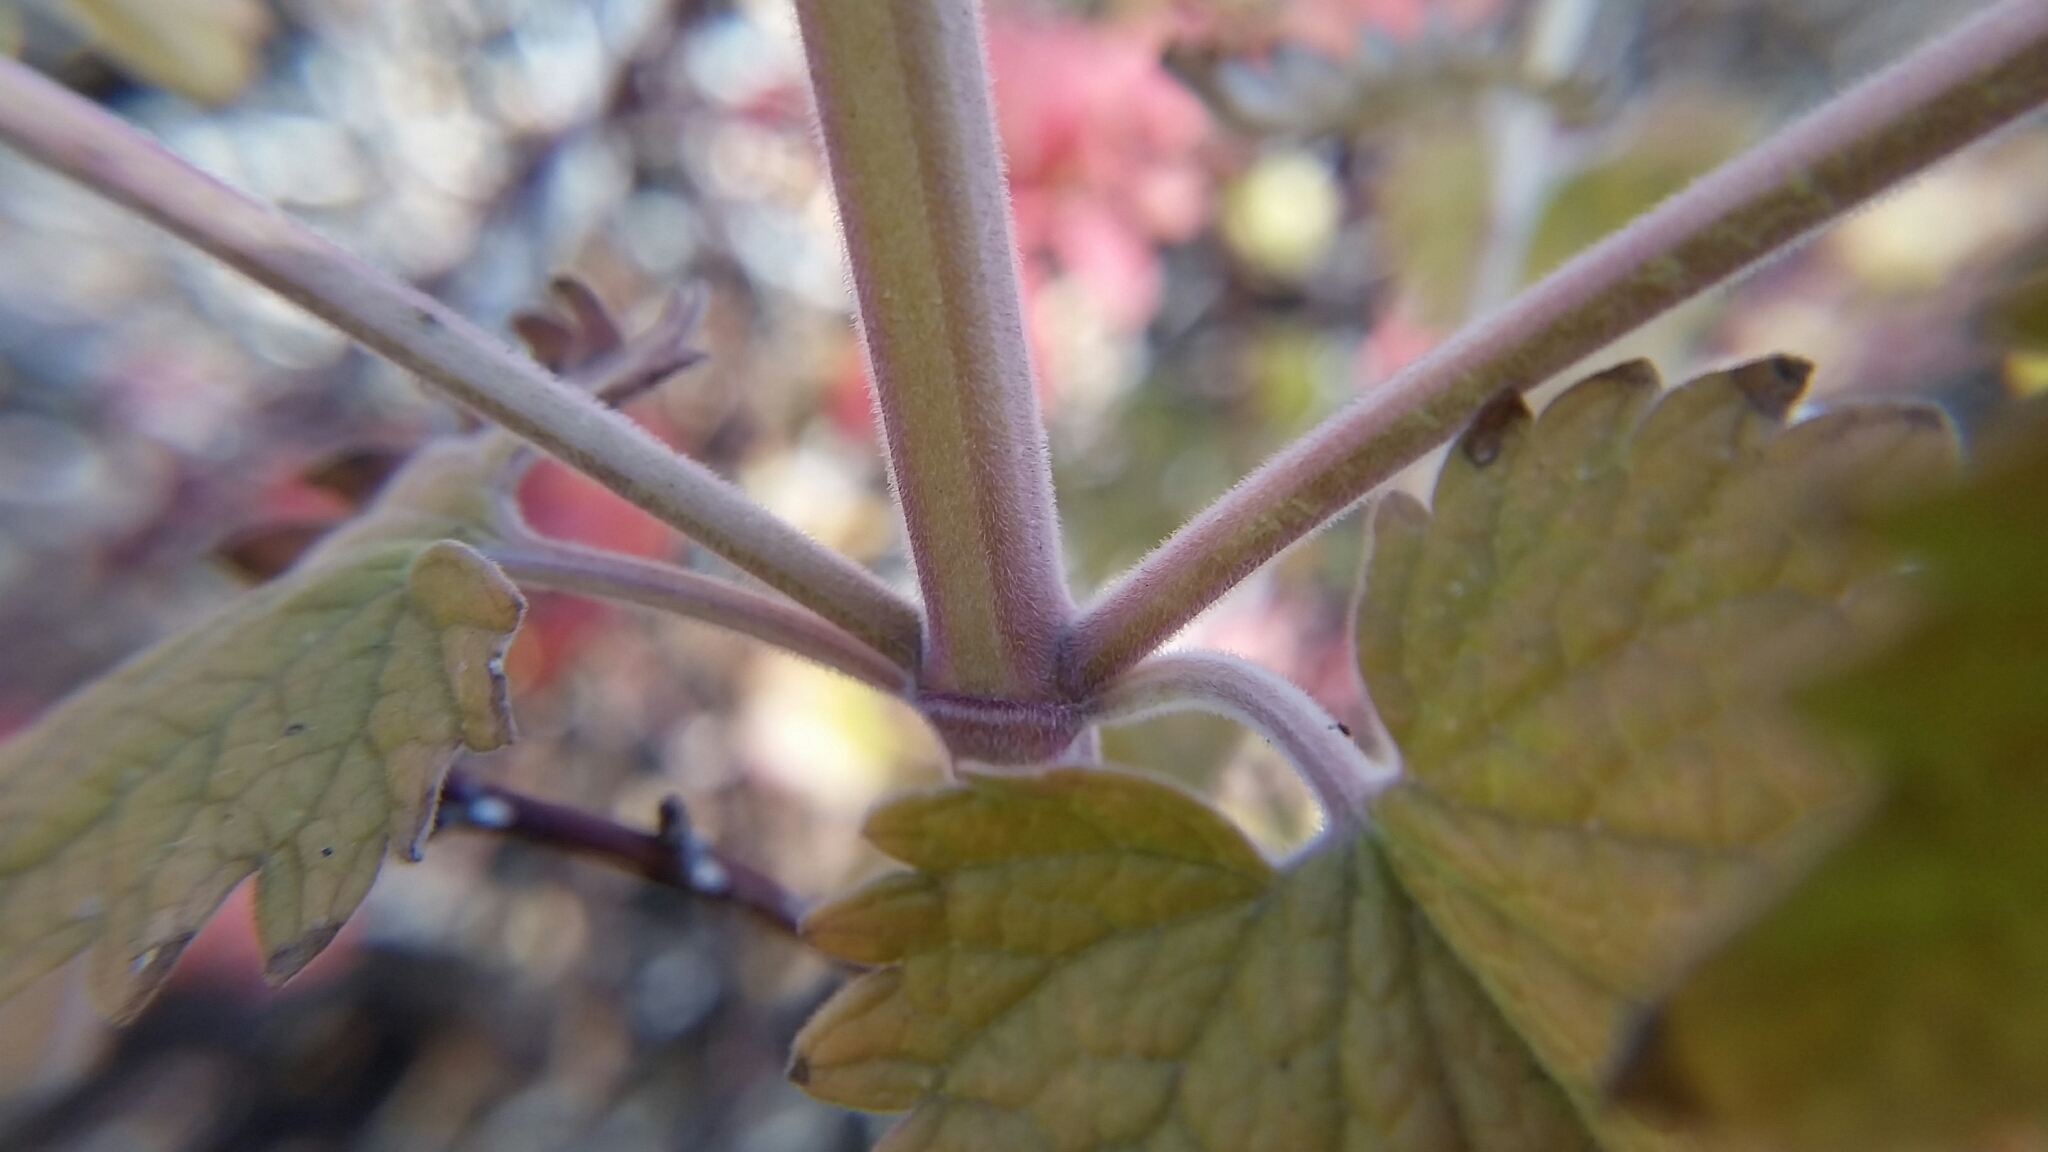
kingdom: Plantae
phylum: Tracheophyta
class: Magnoliopsida
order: Lamiales
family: Lamiaceae
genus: Nepeta
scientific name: Nepeta cataria
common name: Catnip
